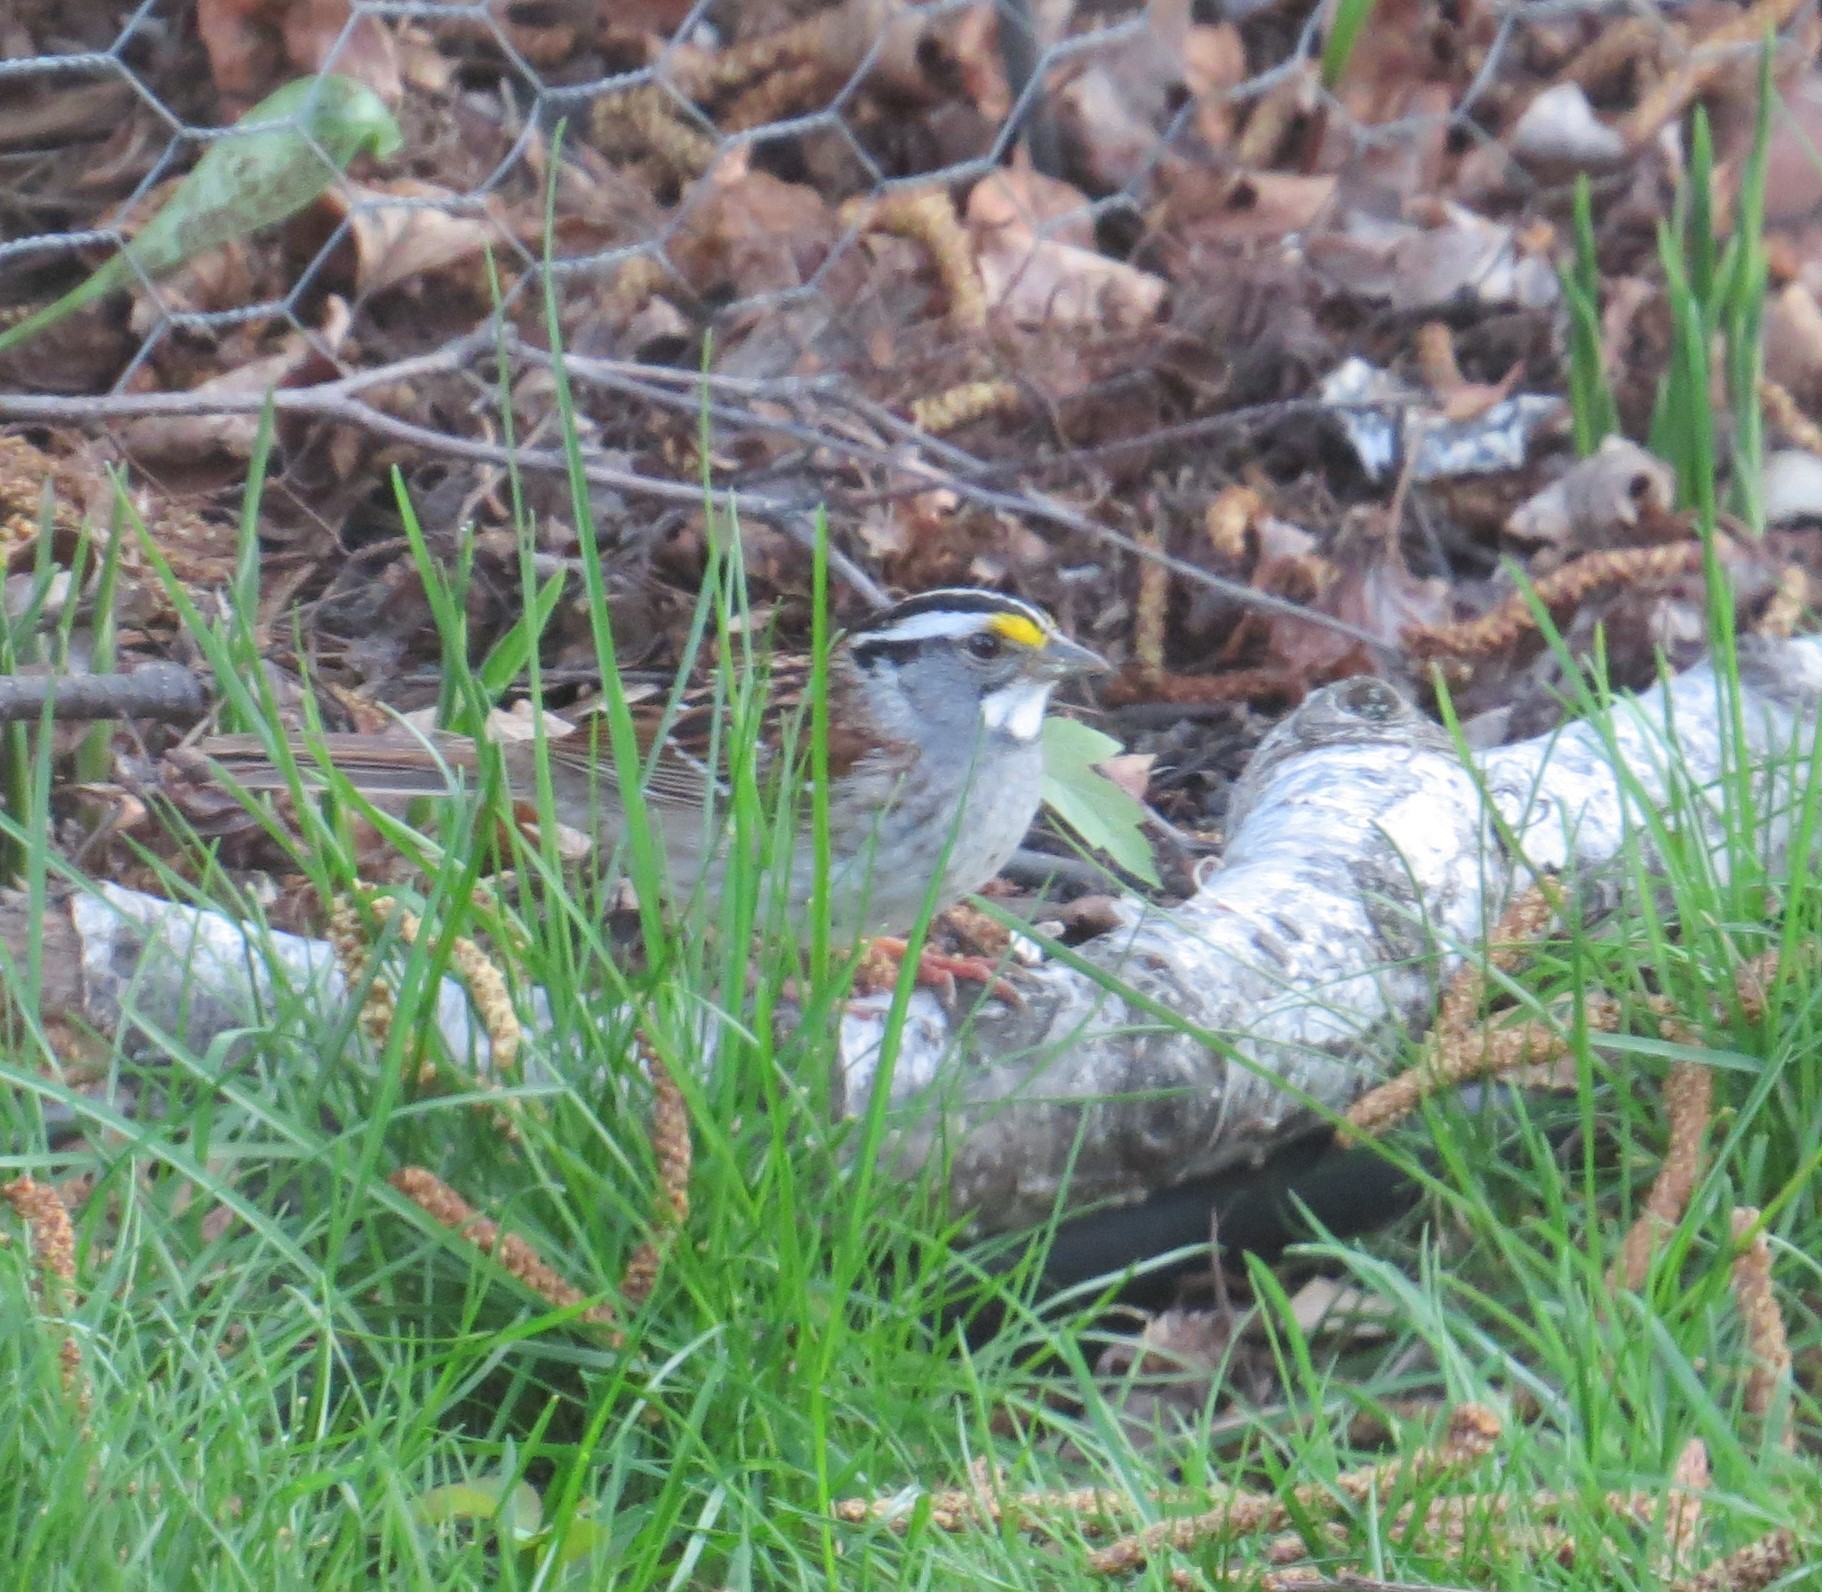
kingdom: Animalia
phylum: Chordata
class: Aves
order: Passeriformes
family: Passerellidae
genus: Zonotrichia
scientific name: Zonotrichia albicollis
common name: White-throated sparrow
